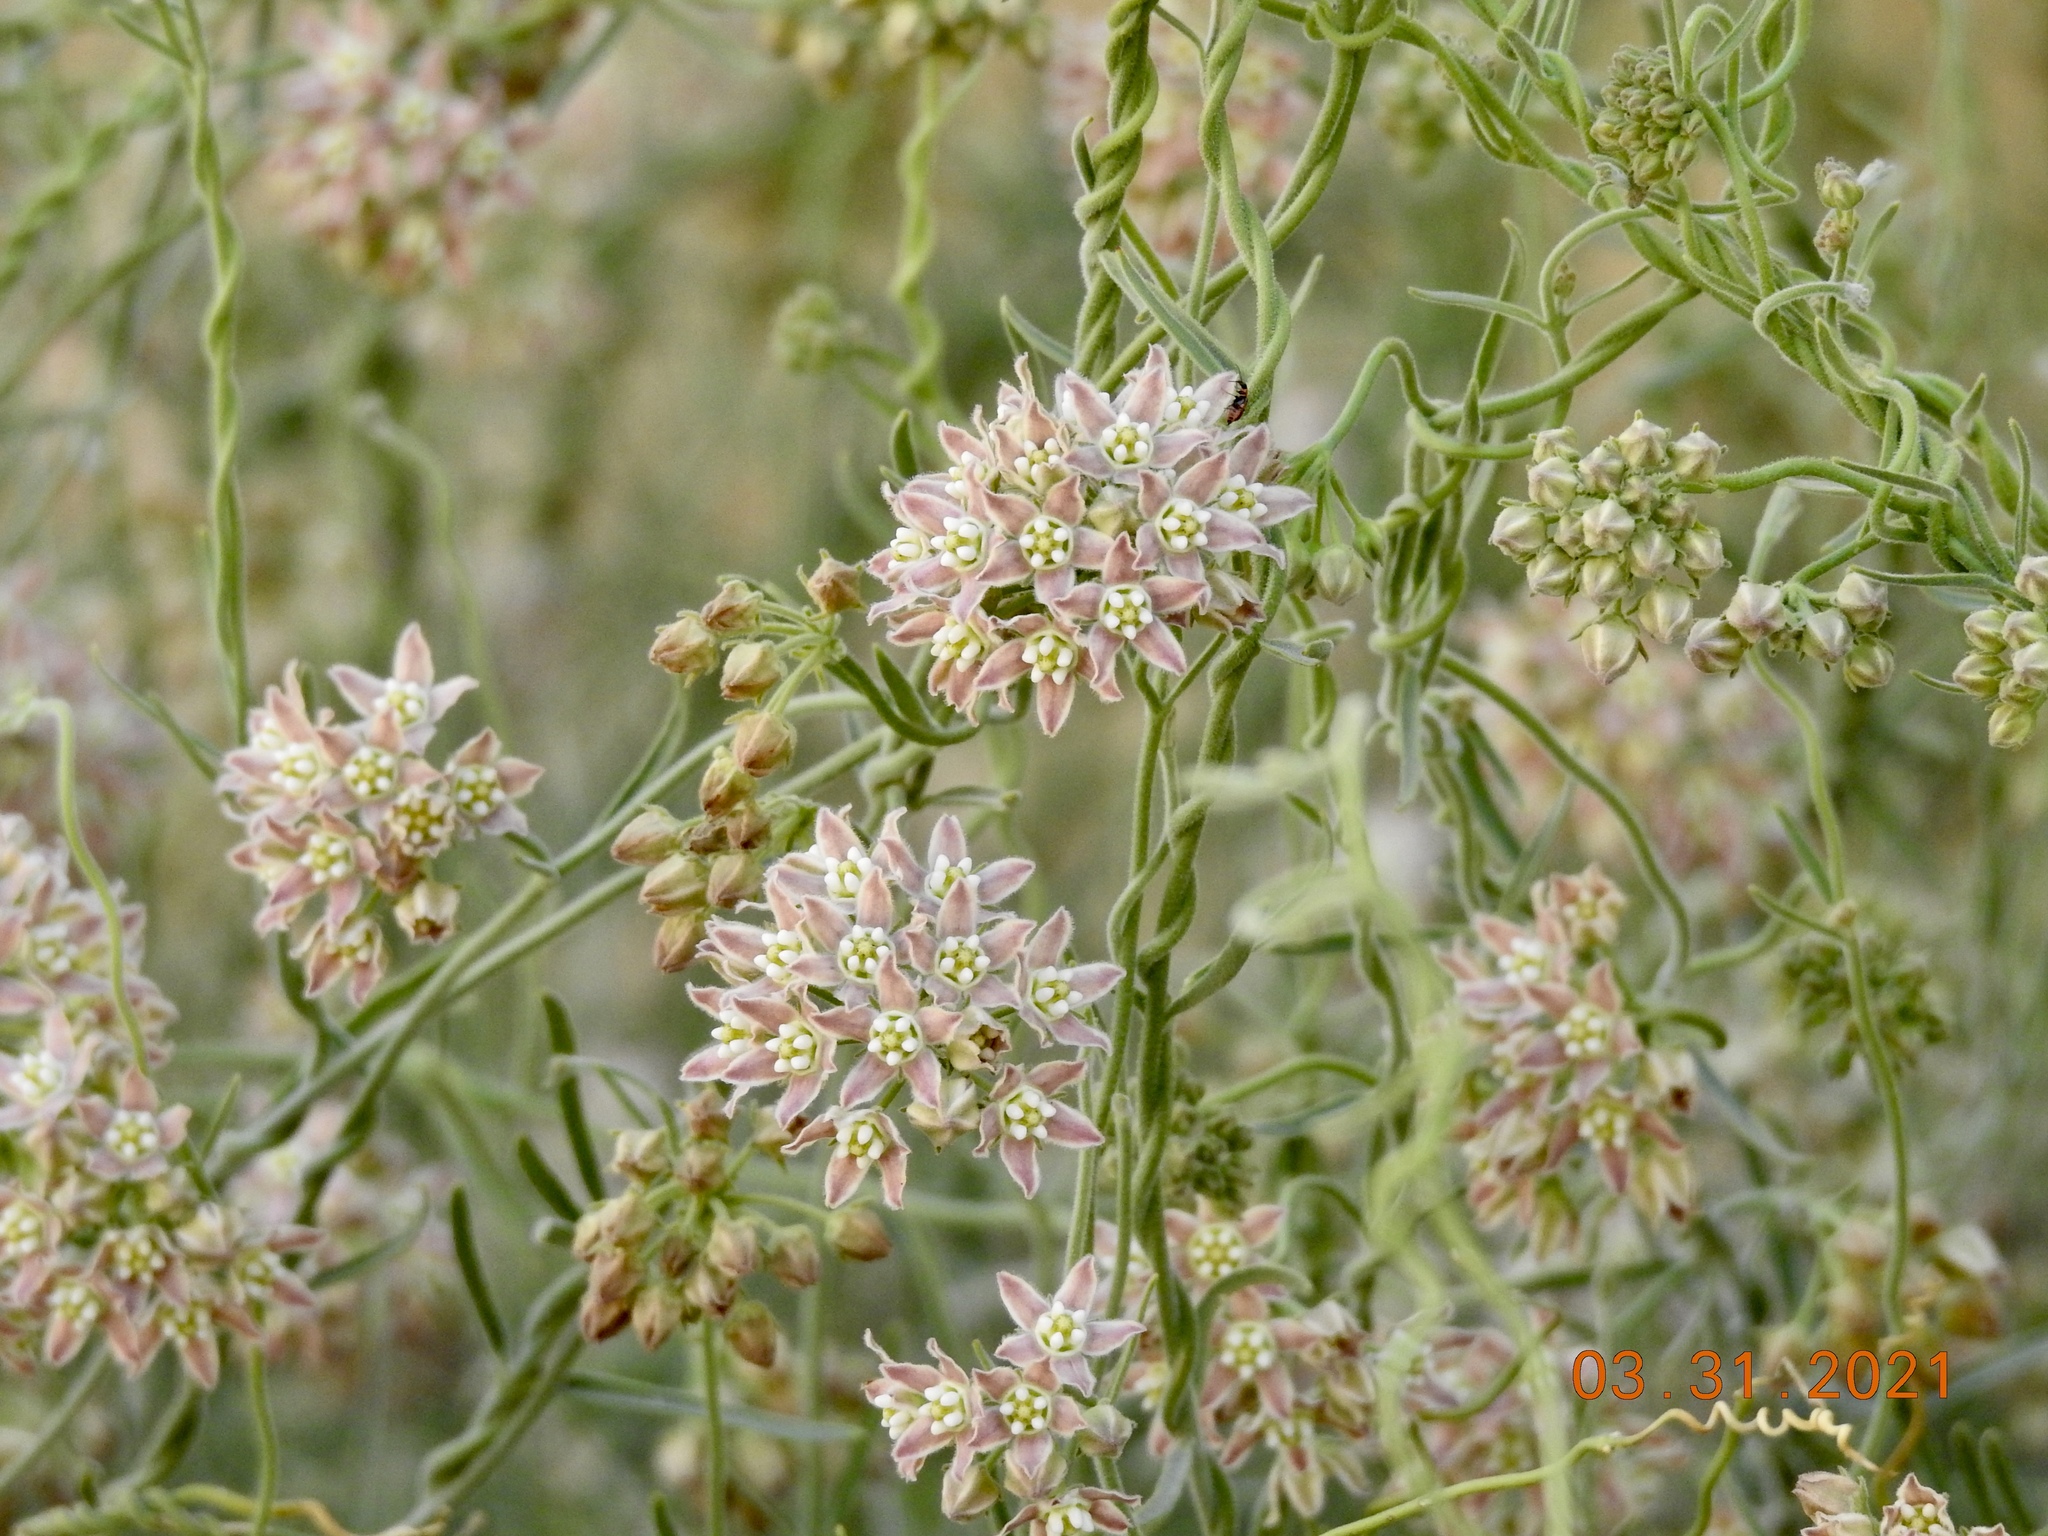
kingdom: Plantae
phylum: Tracheophyta
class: Magnoliopsida
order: Gentianales
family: Apocynaceae
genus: Funastrum
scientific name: Funastrum hirtellum
